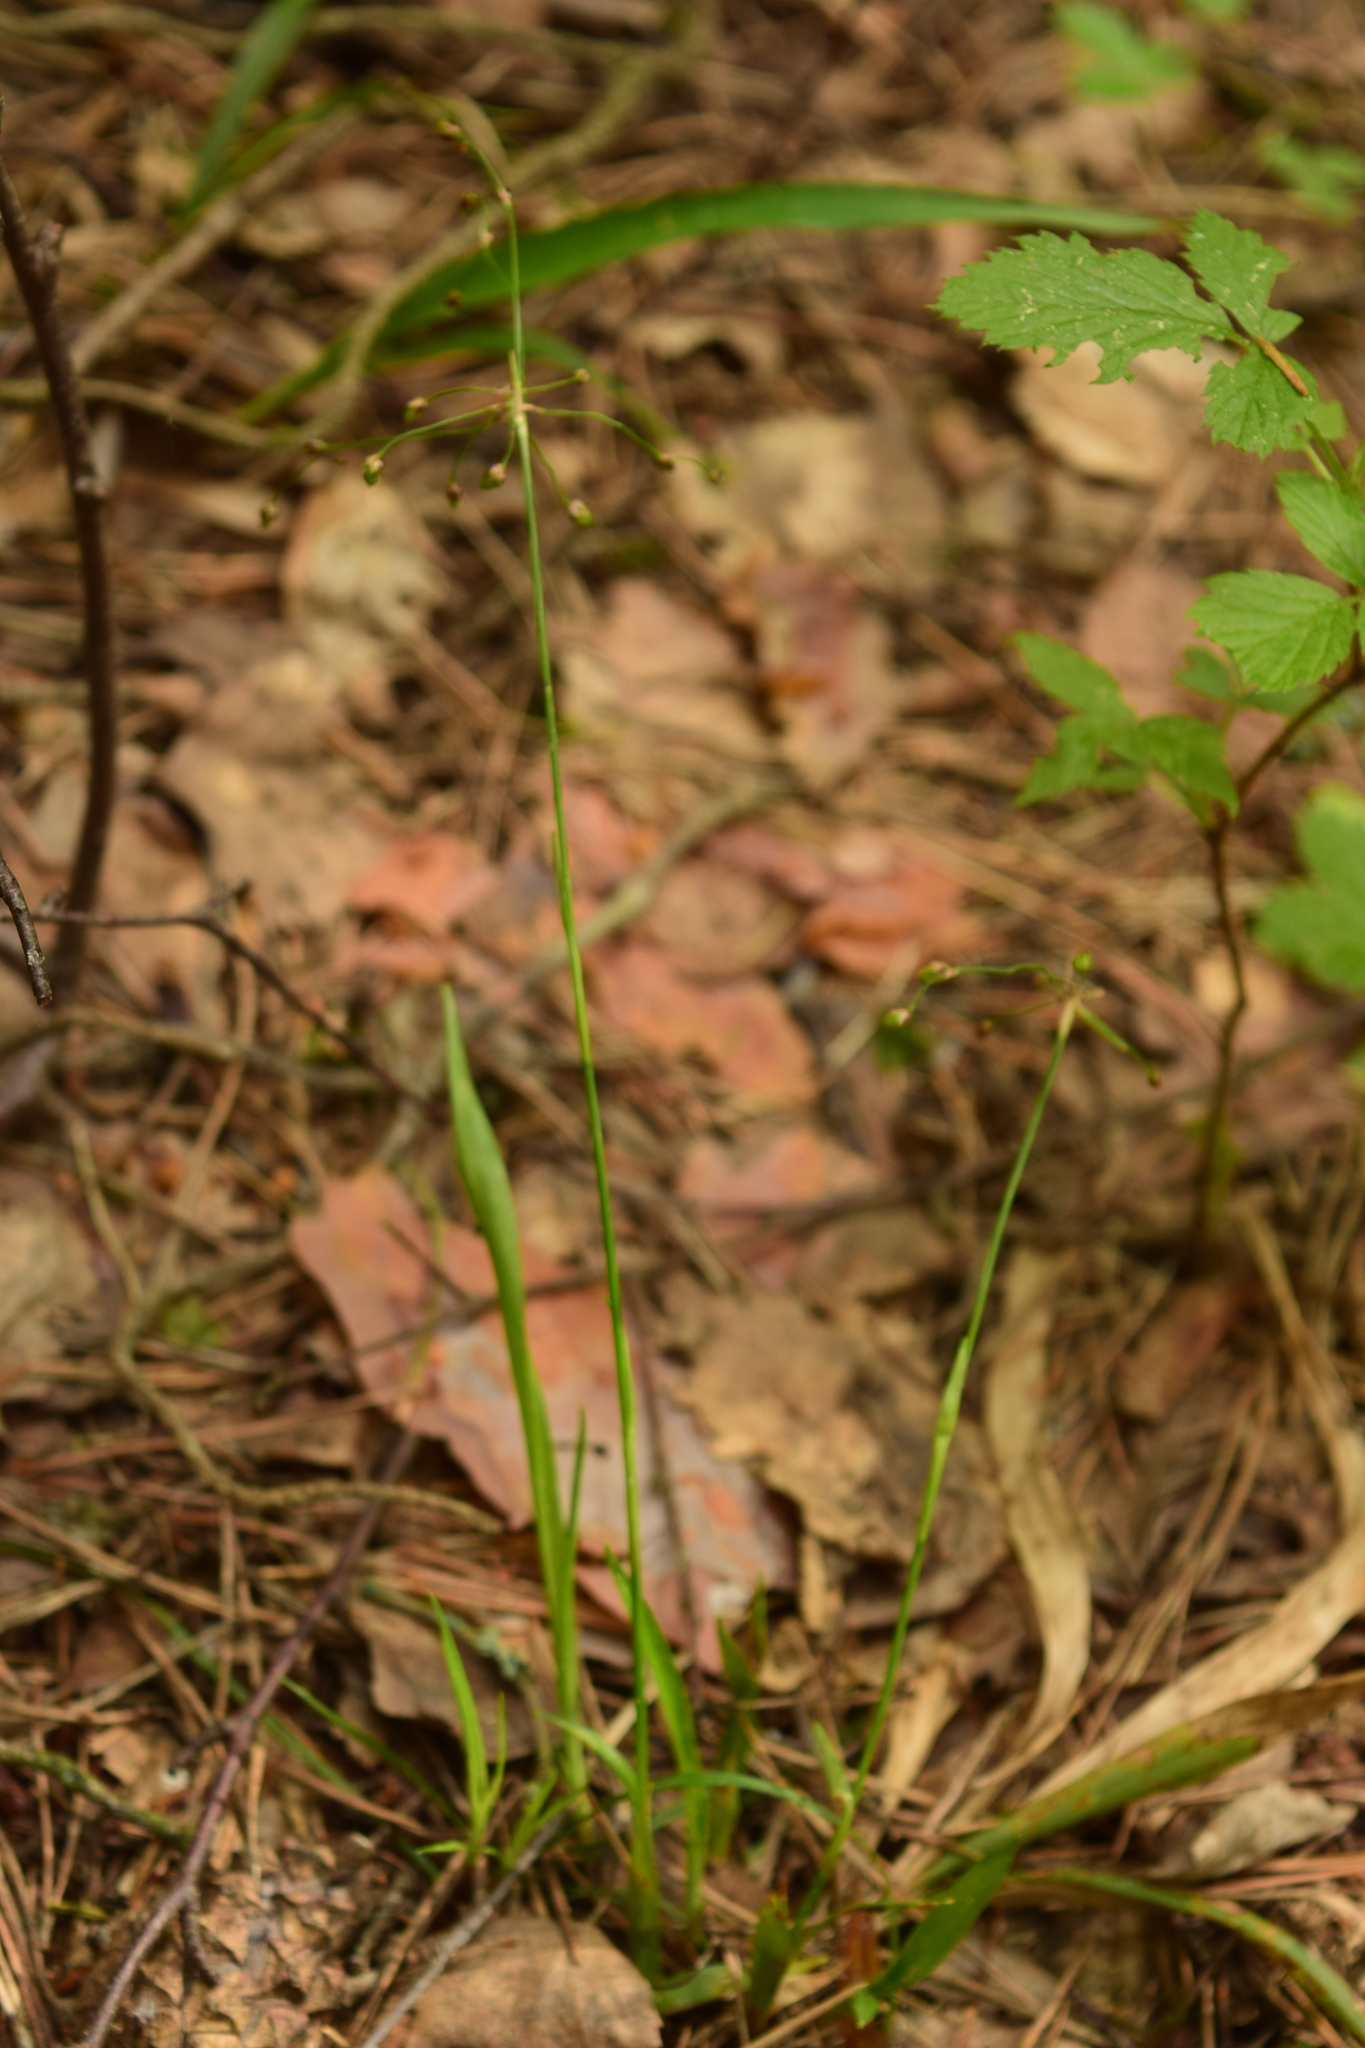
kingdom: Plantae
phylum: Tracheophyta
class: Liliopsida
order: Poales
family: Juncaceae
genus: Luzula
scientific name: Luzula pilosa
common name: Hairy wood-rush
